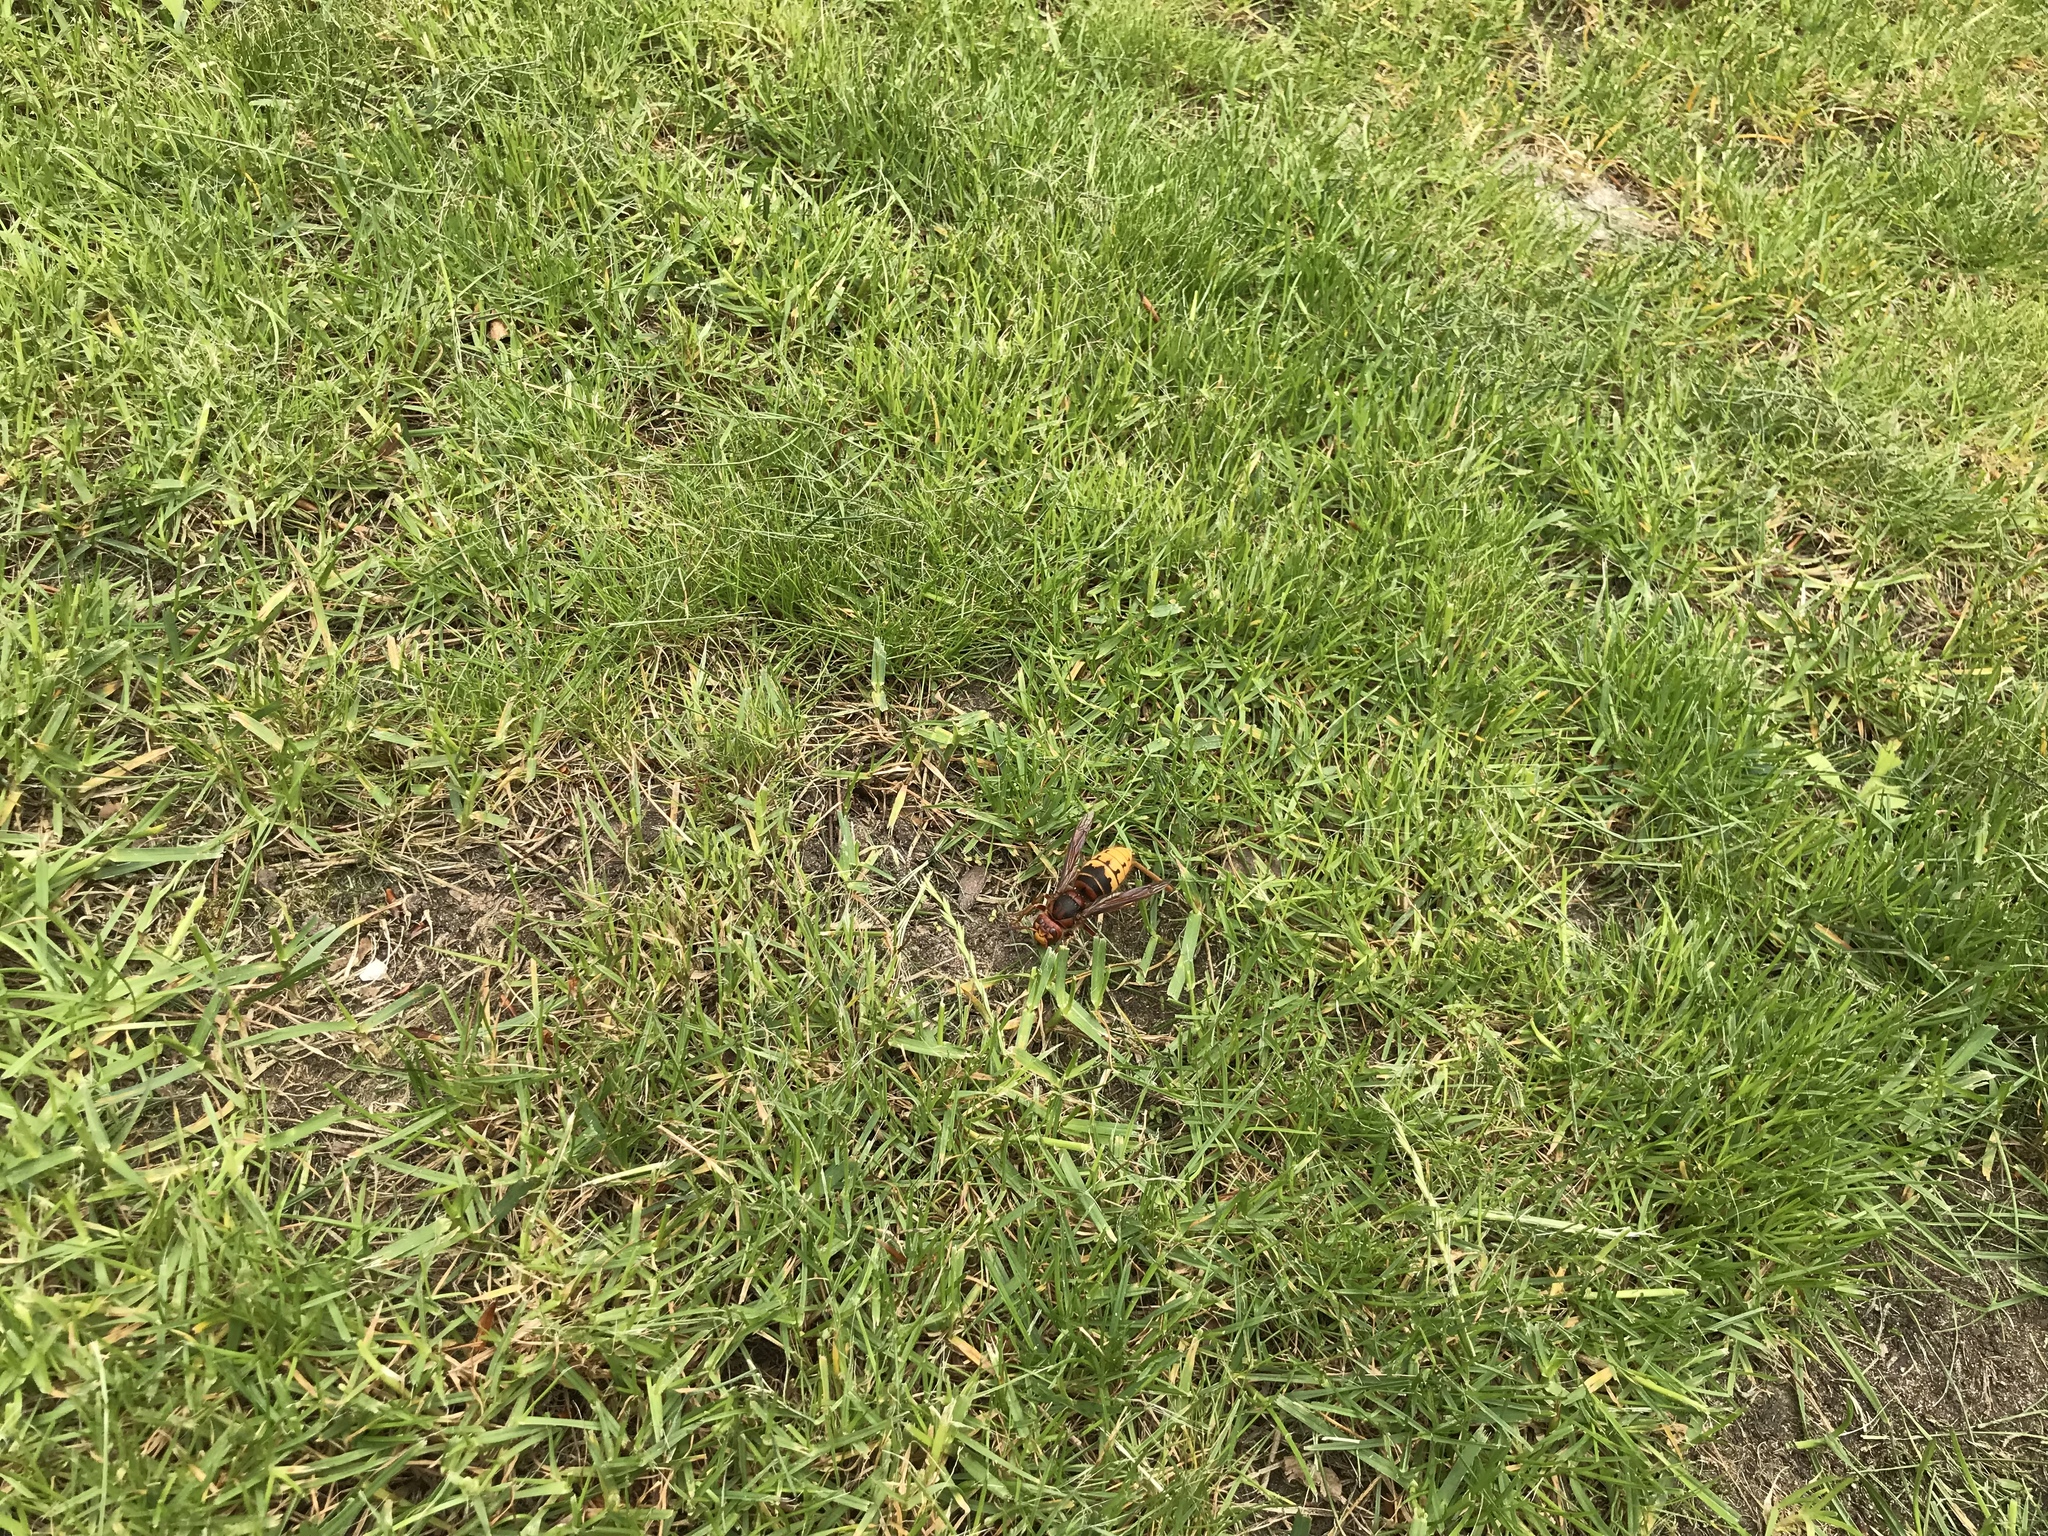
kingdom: Animalia
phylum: Arthropoda
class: Insecta
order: Hymenoptera
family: Vespidae
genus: Vespa
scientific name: Vespa crabro
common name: Hornet
